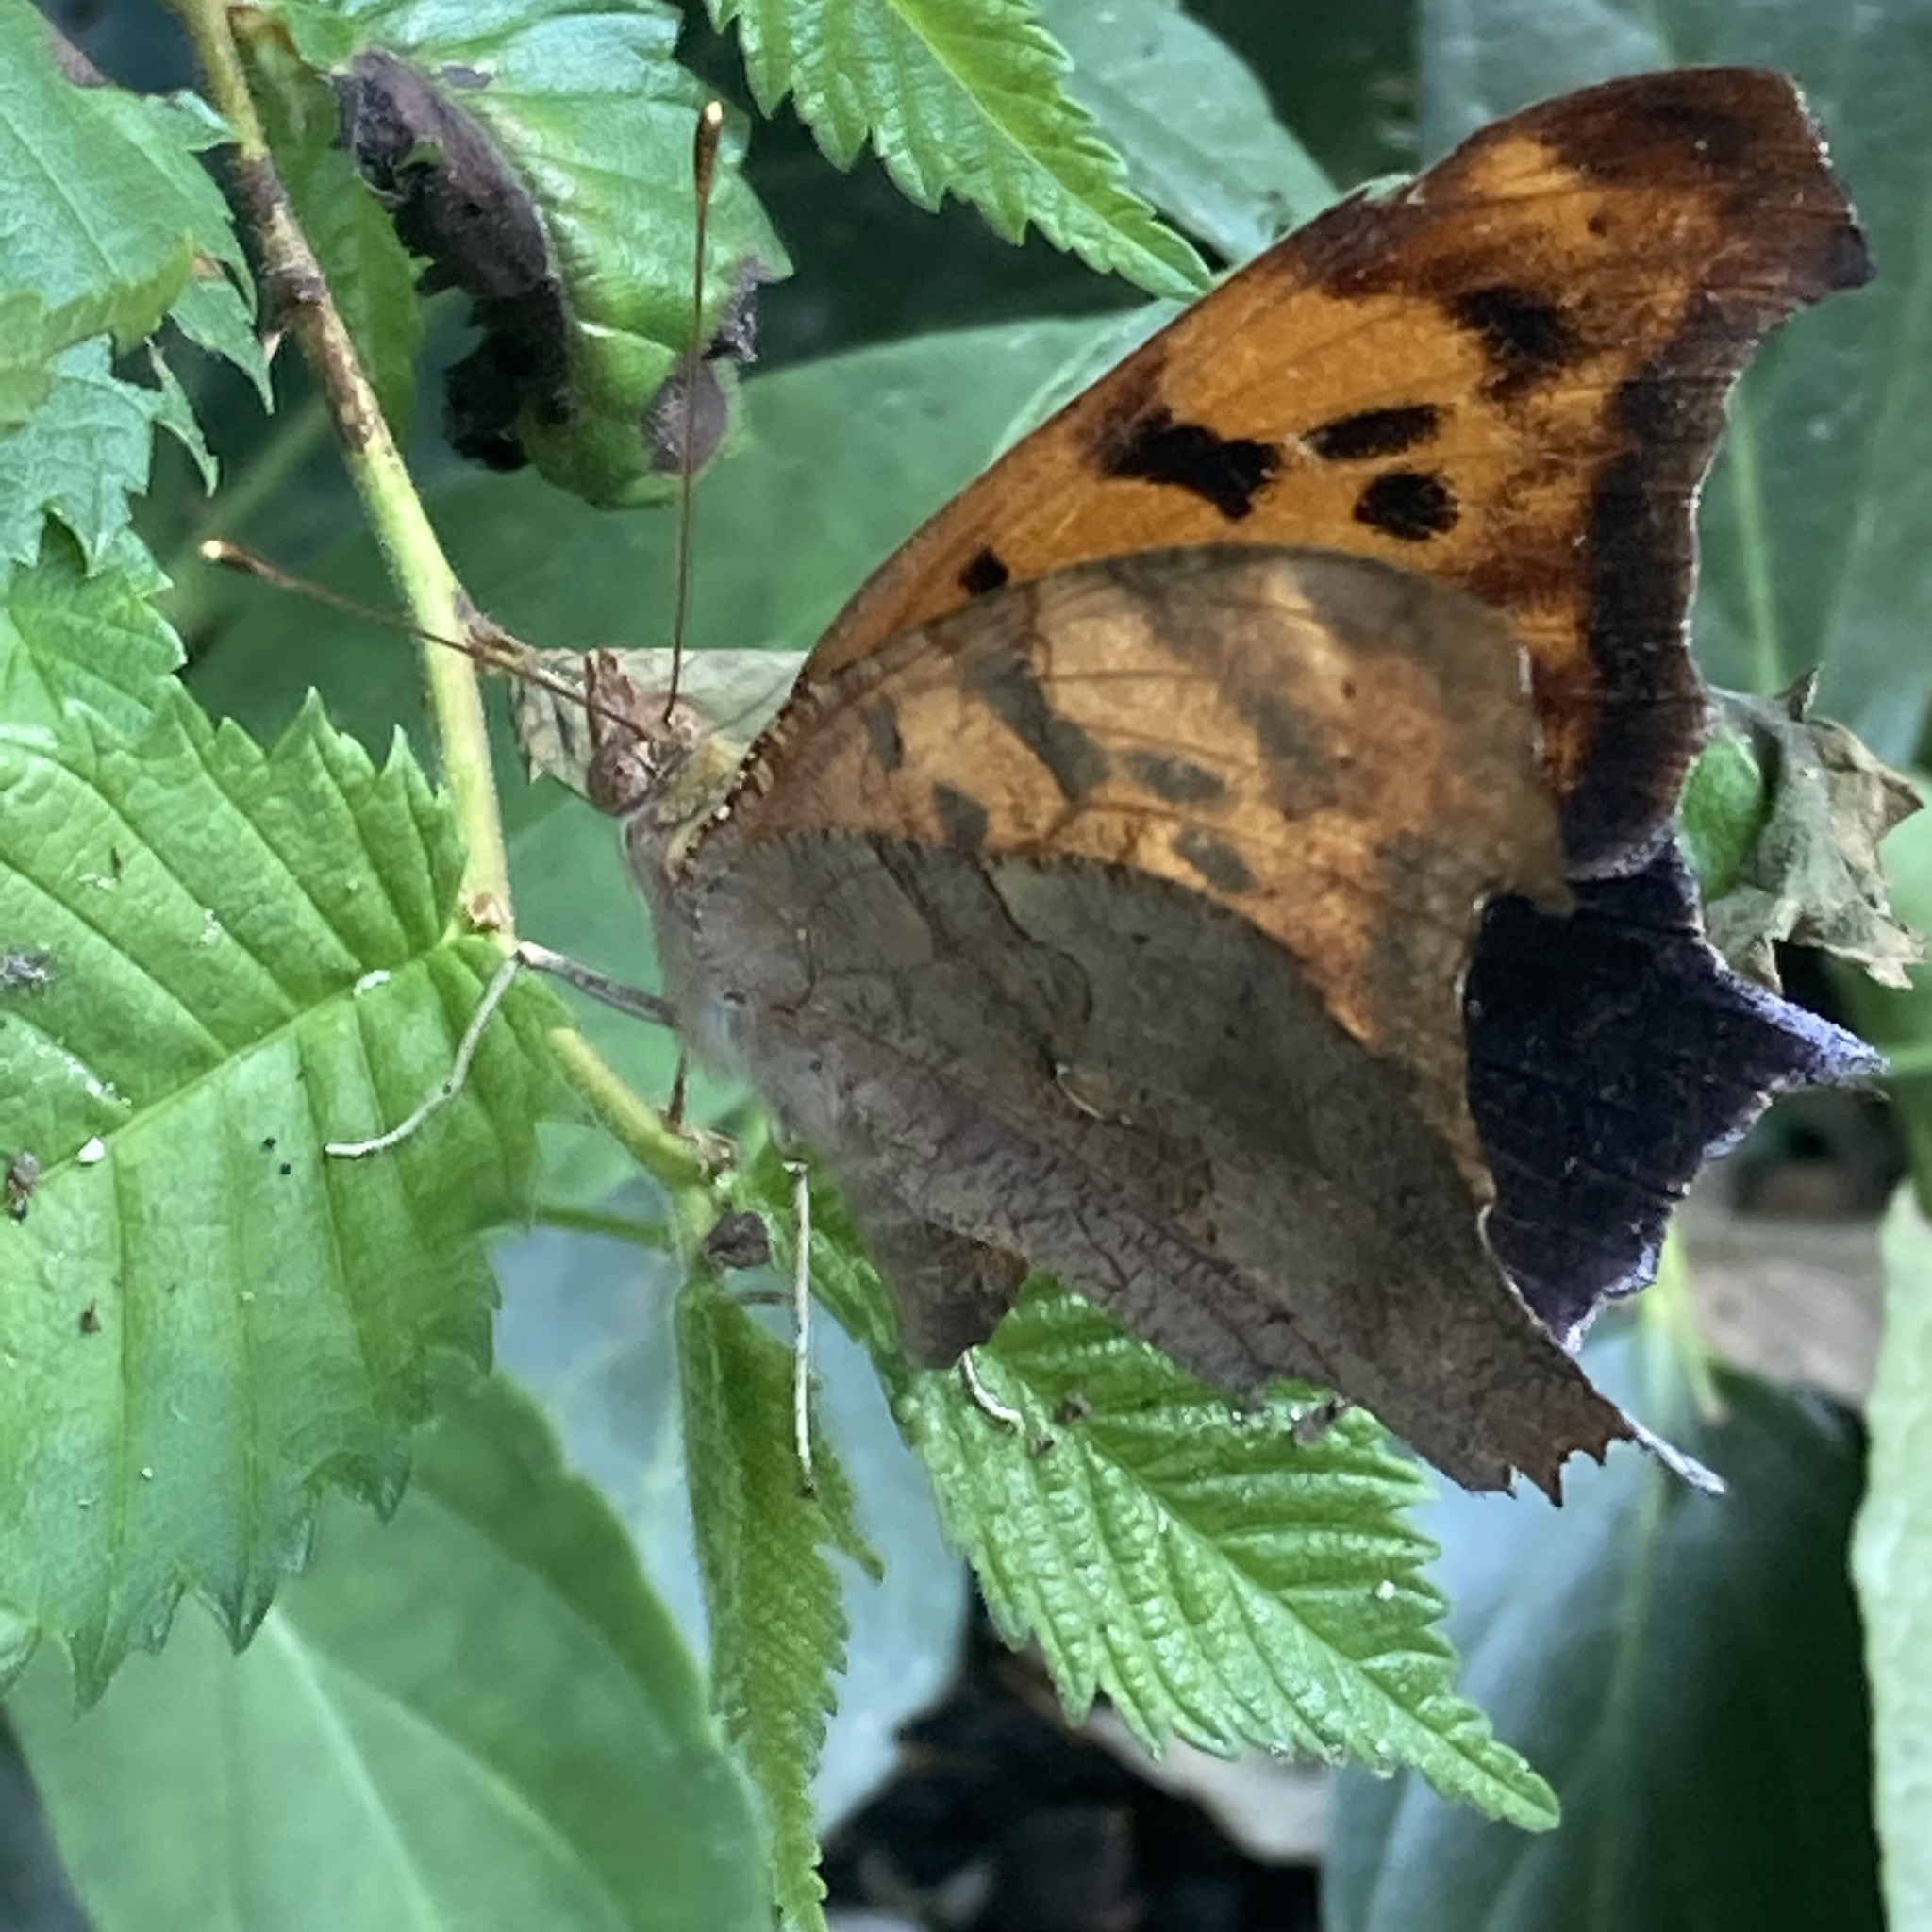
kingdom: Animalia
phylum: Arthropoda
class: Insecta
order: Lepidoptera
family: Nymphalidae
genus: Polygonia
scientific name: Polygonia interrogationis
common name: Question mark
